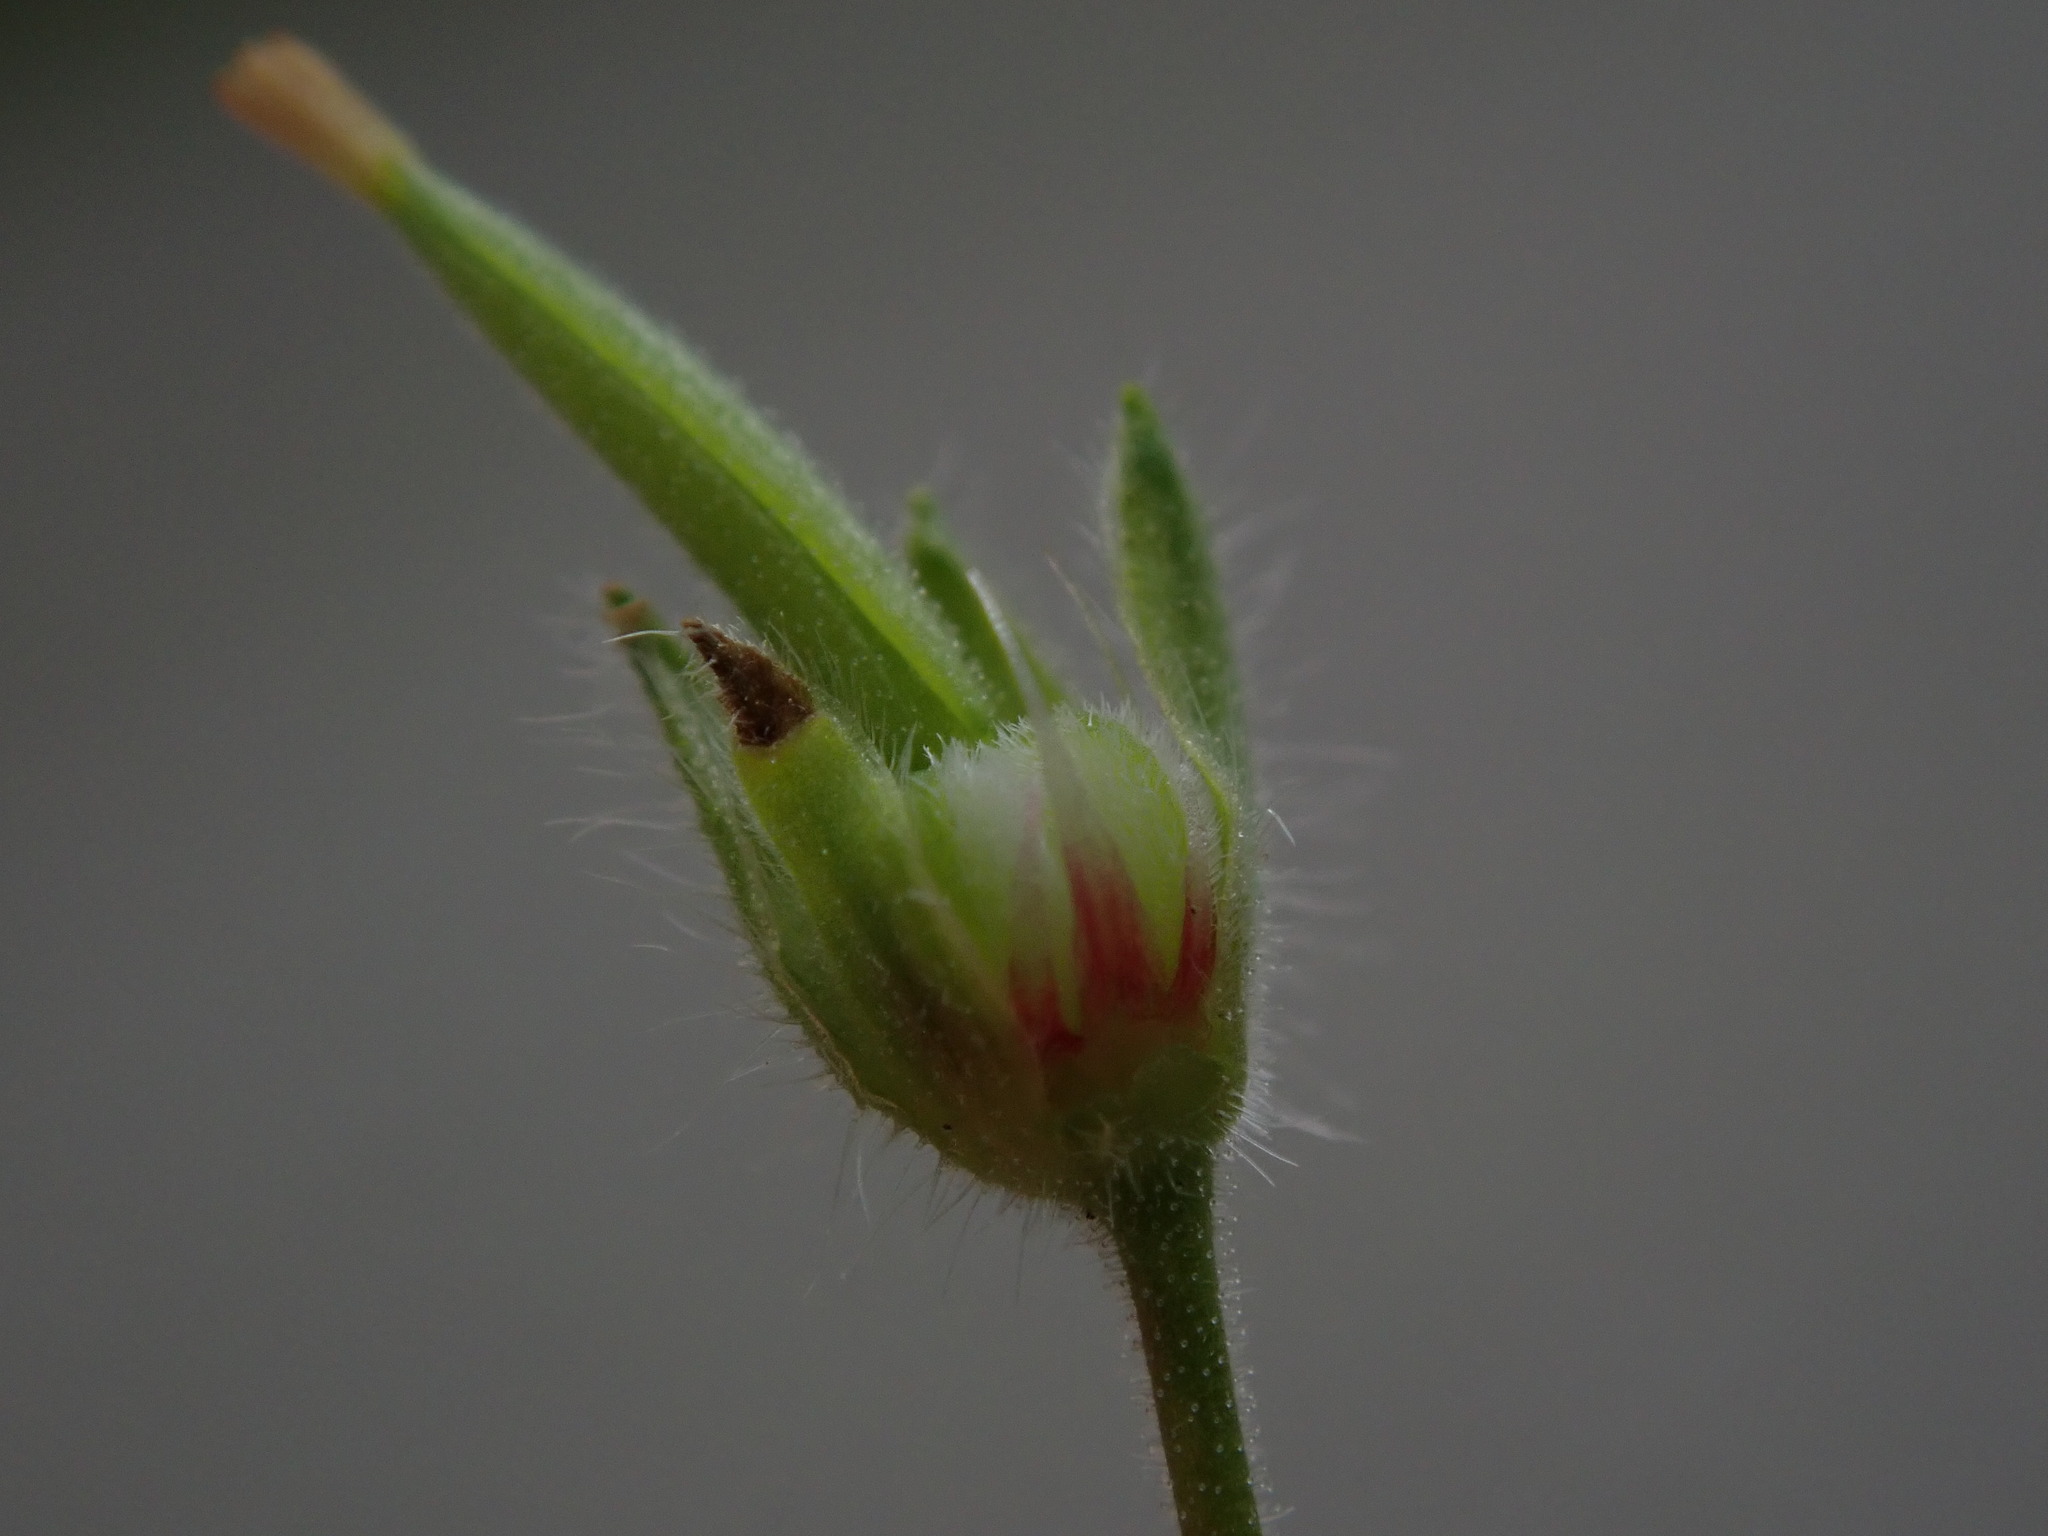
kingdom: Plantae
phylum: Tracheophyta
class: Magnoliopsida
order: Geraniales
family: Geraniaceae
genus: Geranium
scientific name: Geranium pusillum
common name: Small geranium
